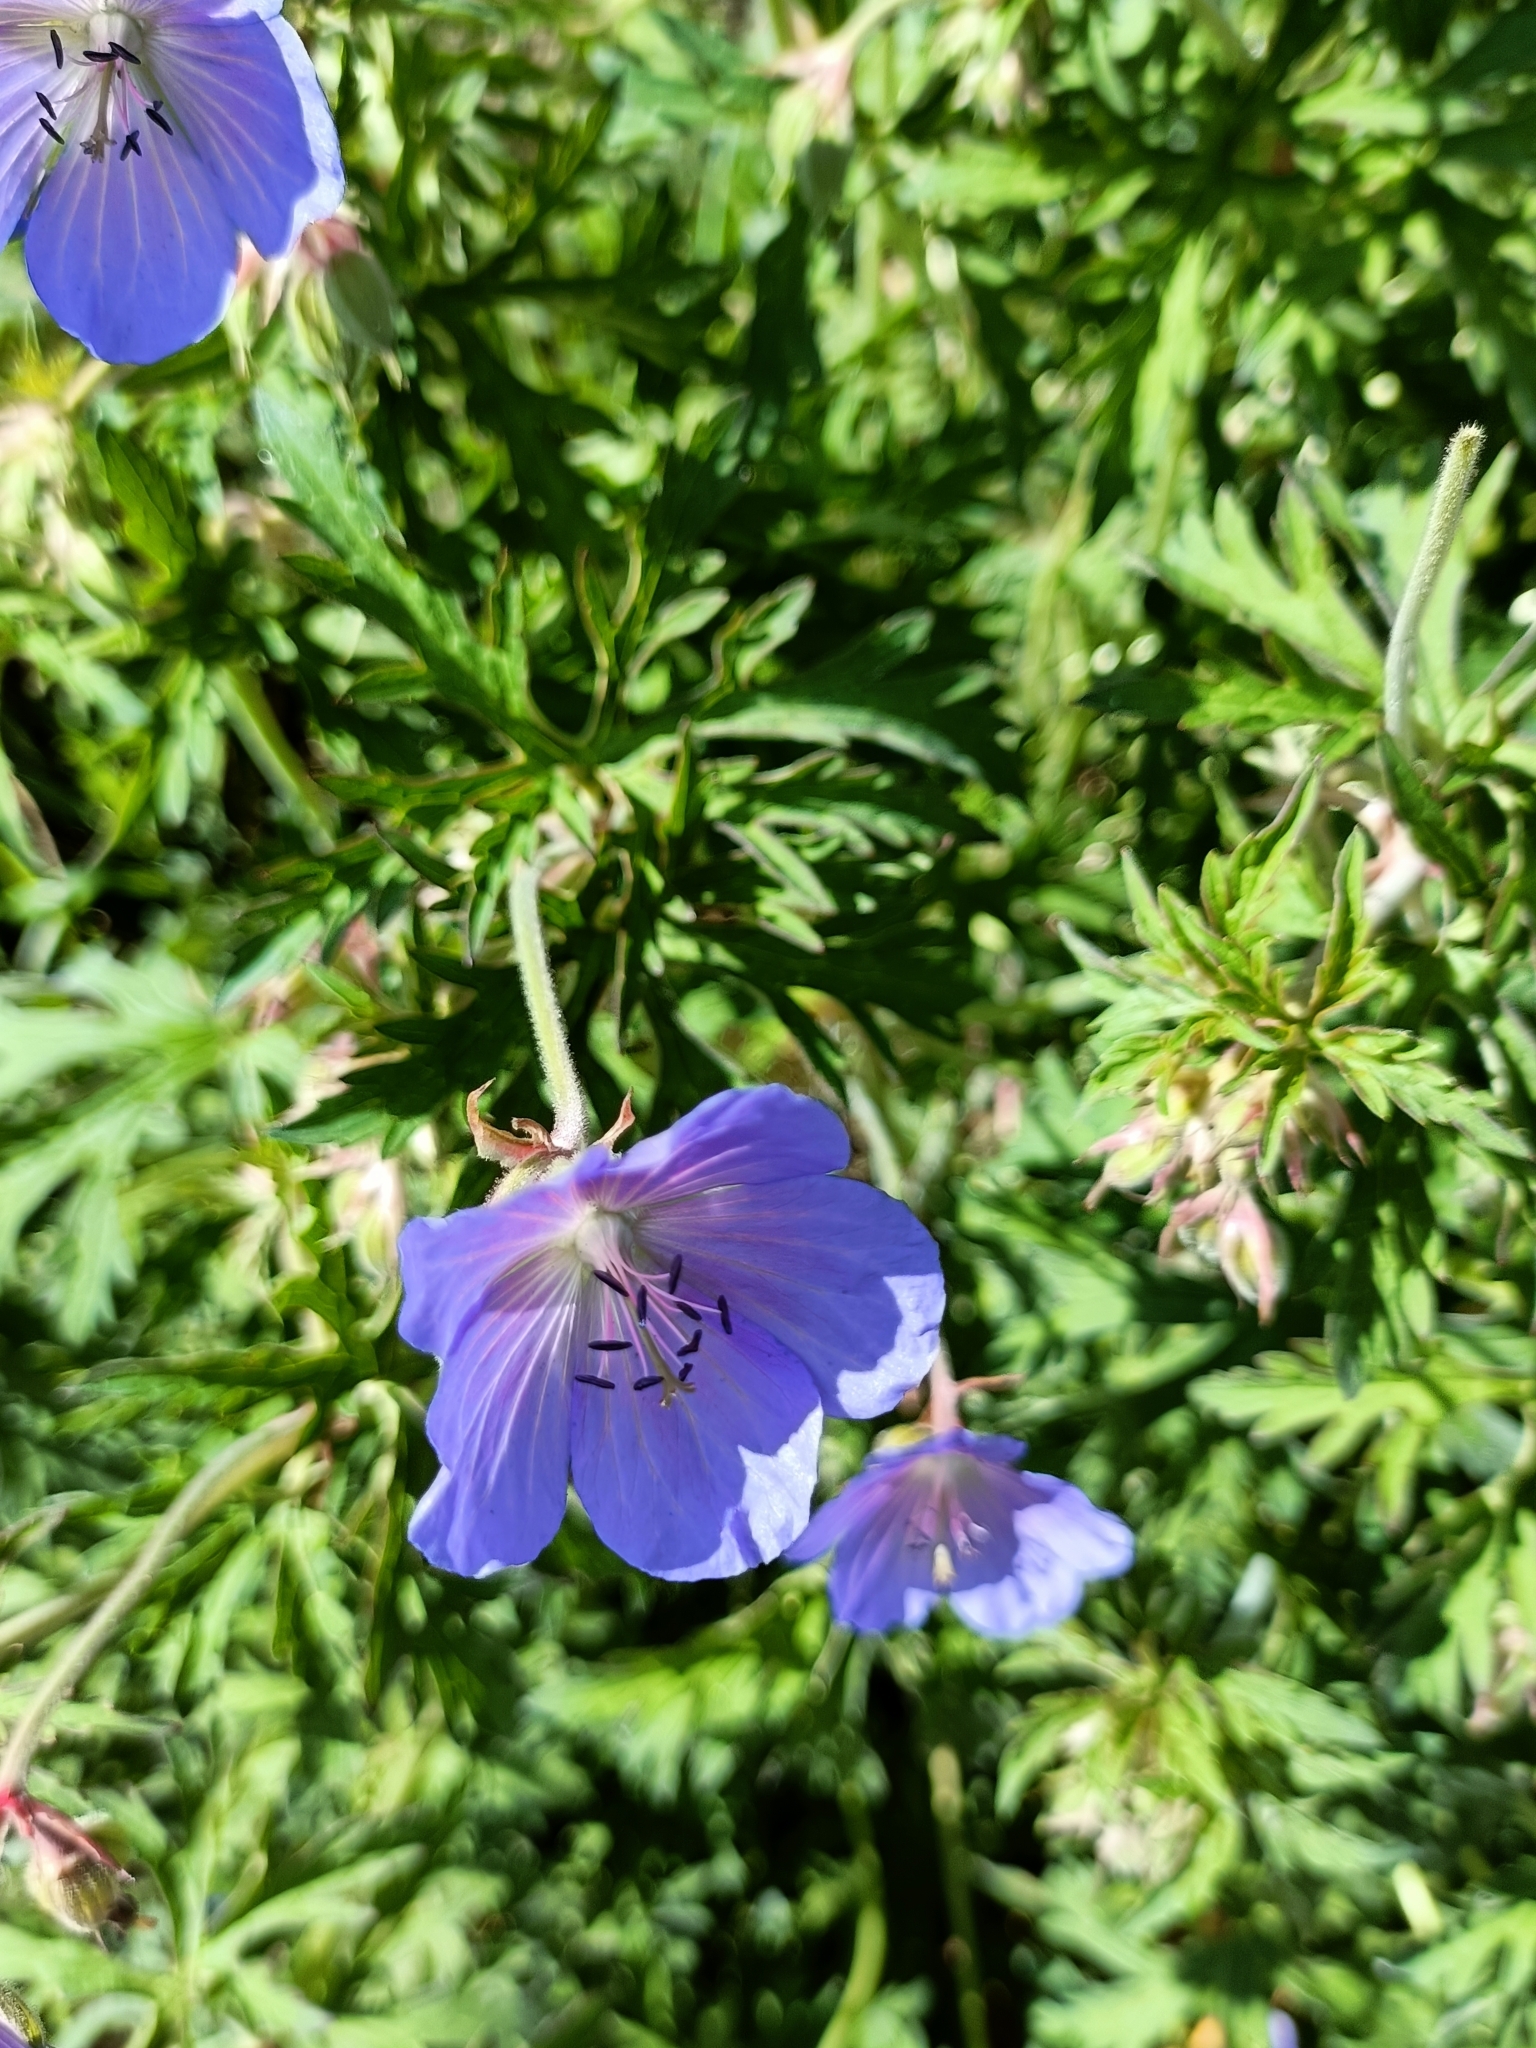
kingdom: Plantae
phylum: Tracheophyta
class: Magnoliopsida
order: Geraniales
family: Geraniaceae
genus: Geranium
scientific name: Geranium pratense
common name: Meadow crane's-bill
